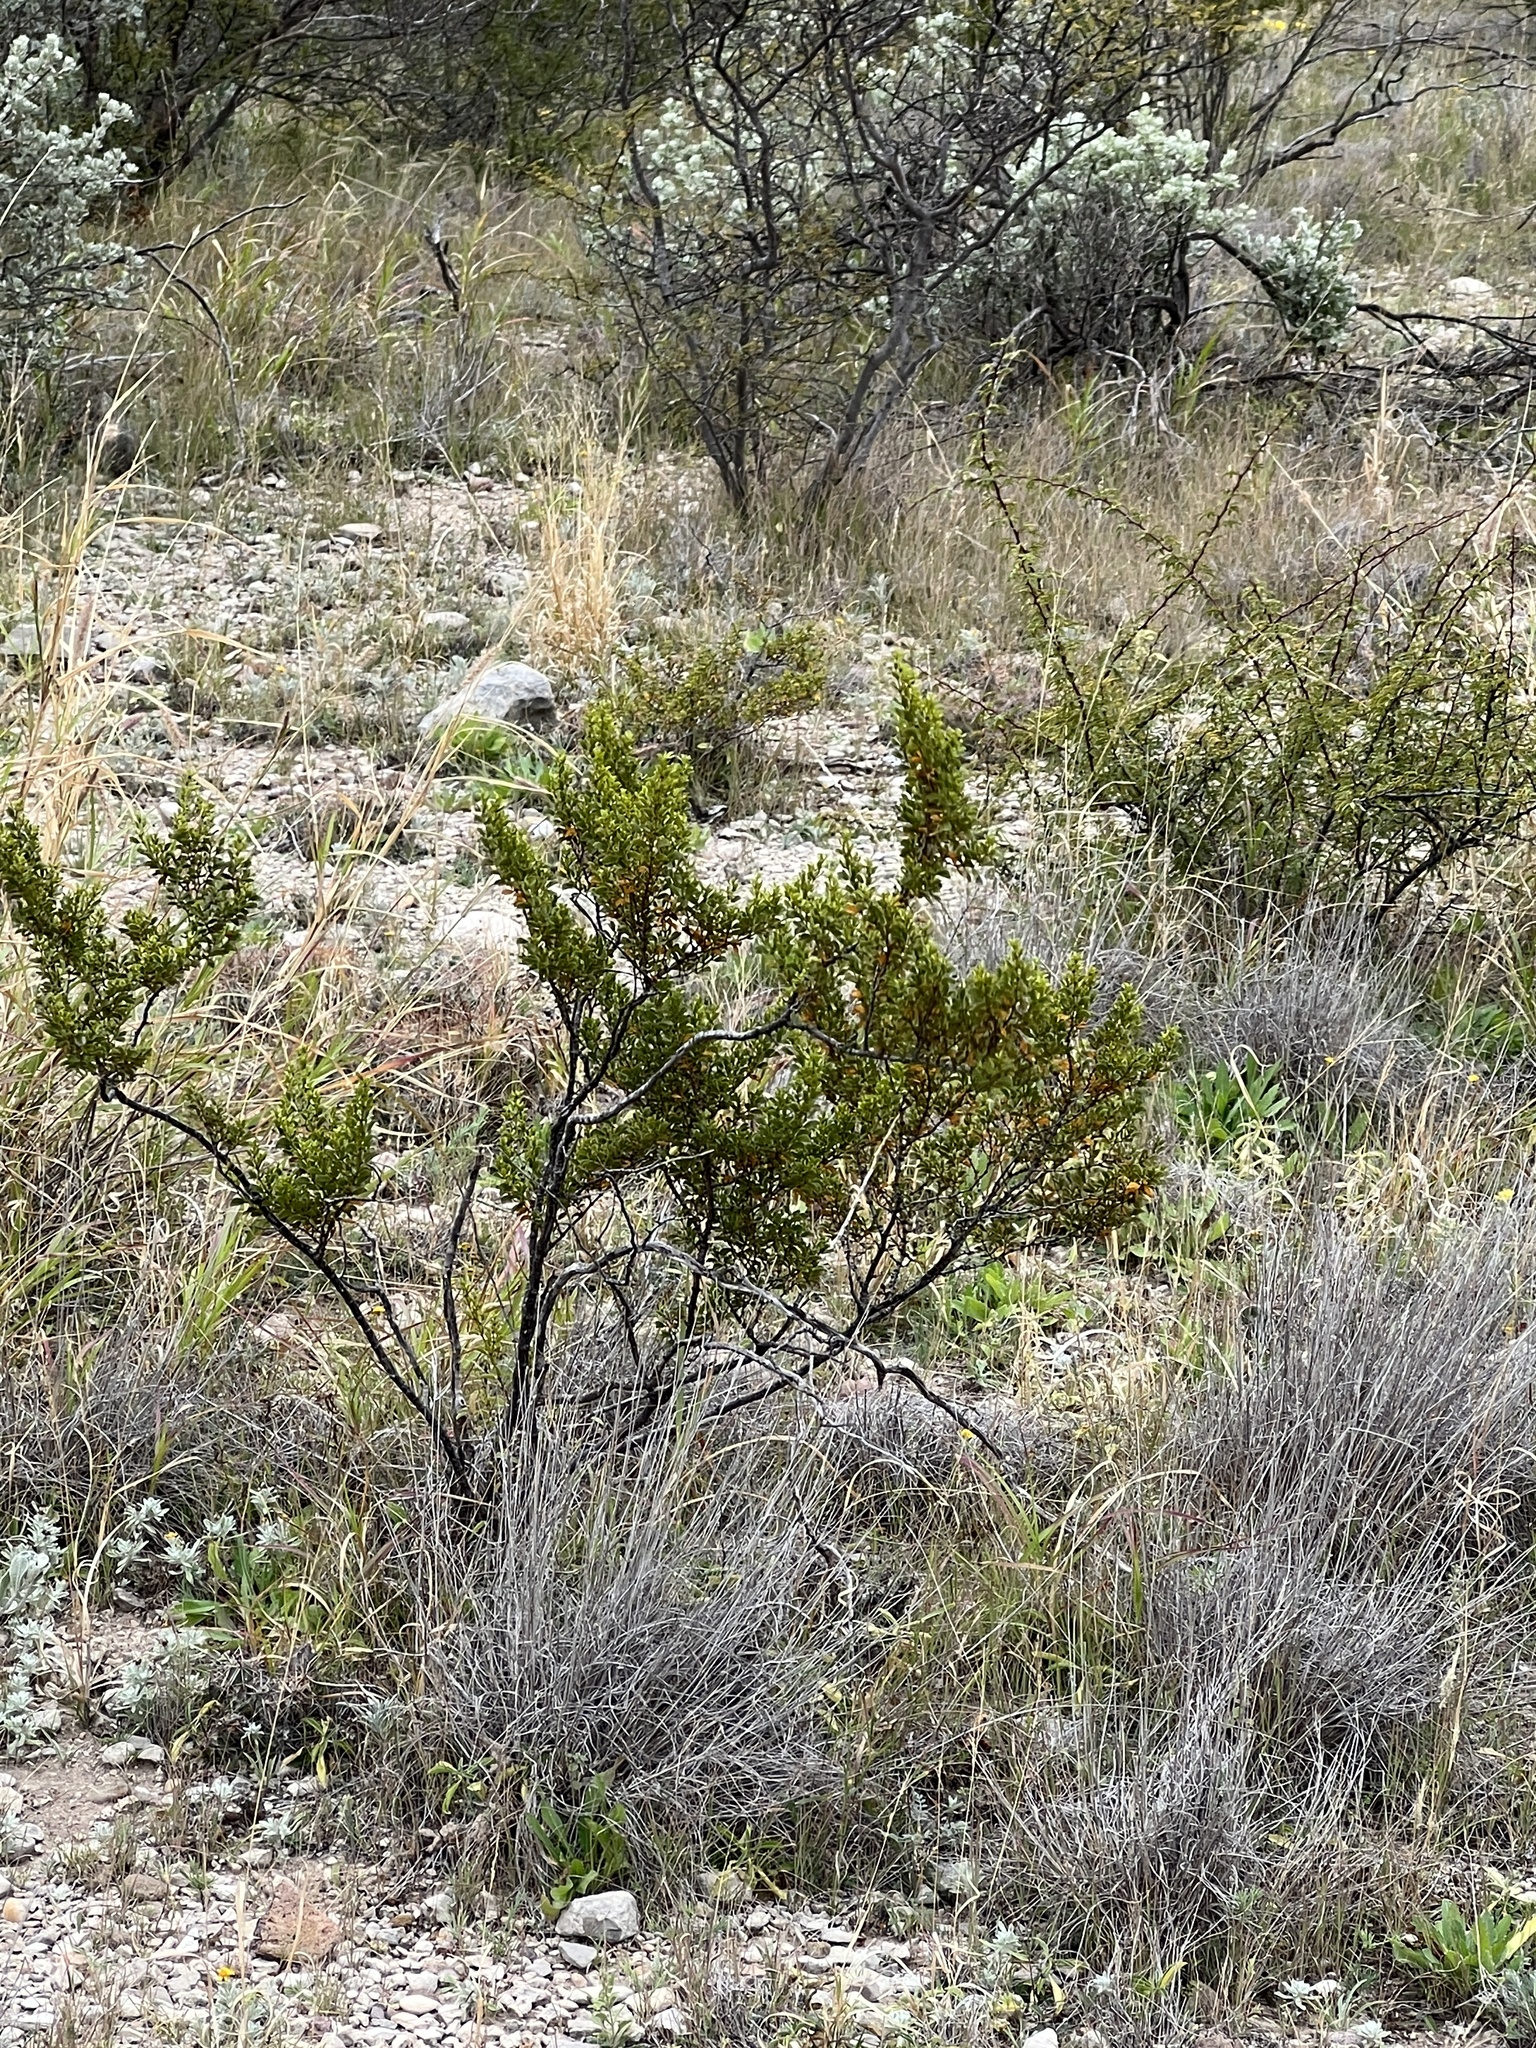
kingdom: Plantae
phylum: Tracheophyta
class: Magnoliopsida
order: Zygophyllales
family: Zygophyllaceae
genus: Larrea
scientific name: Larrea tridentata
